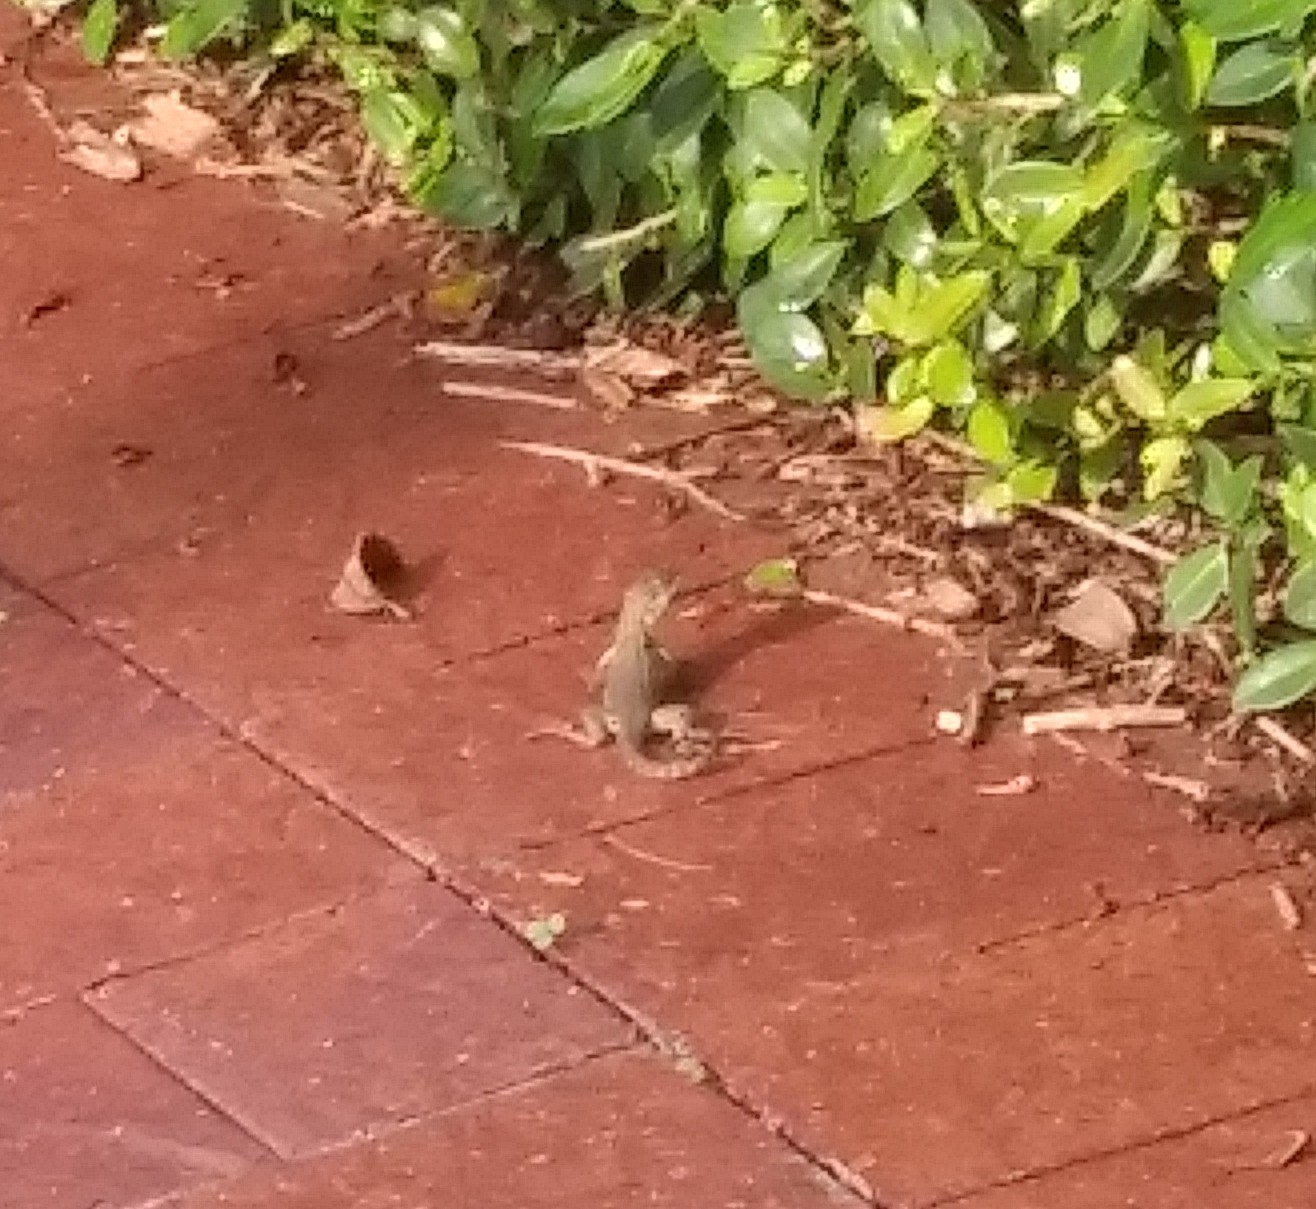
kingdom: Animalia
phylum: Chordata
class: Squamata
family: Leiocephalidae
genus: Leiocephalus
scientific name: Leiocephalus carinatus
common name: Northern curly-tailed lizard
